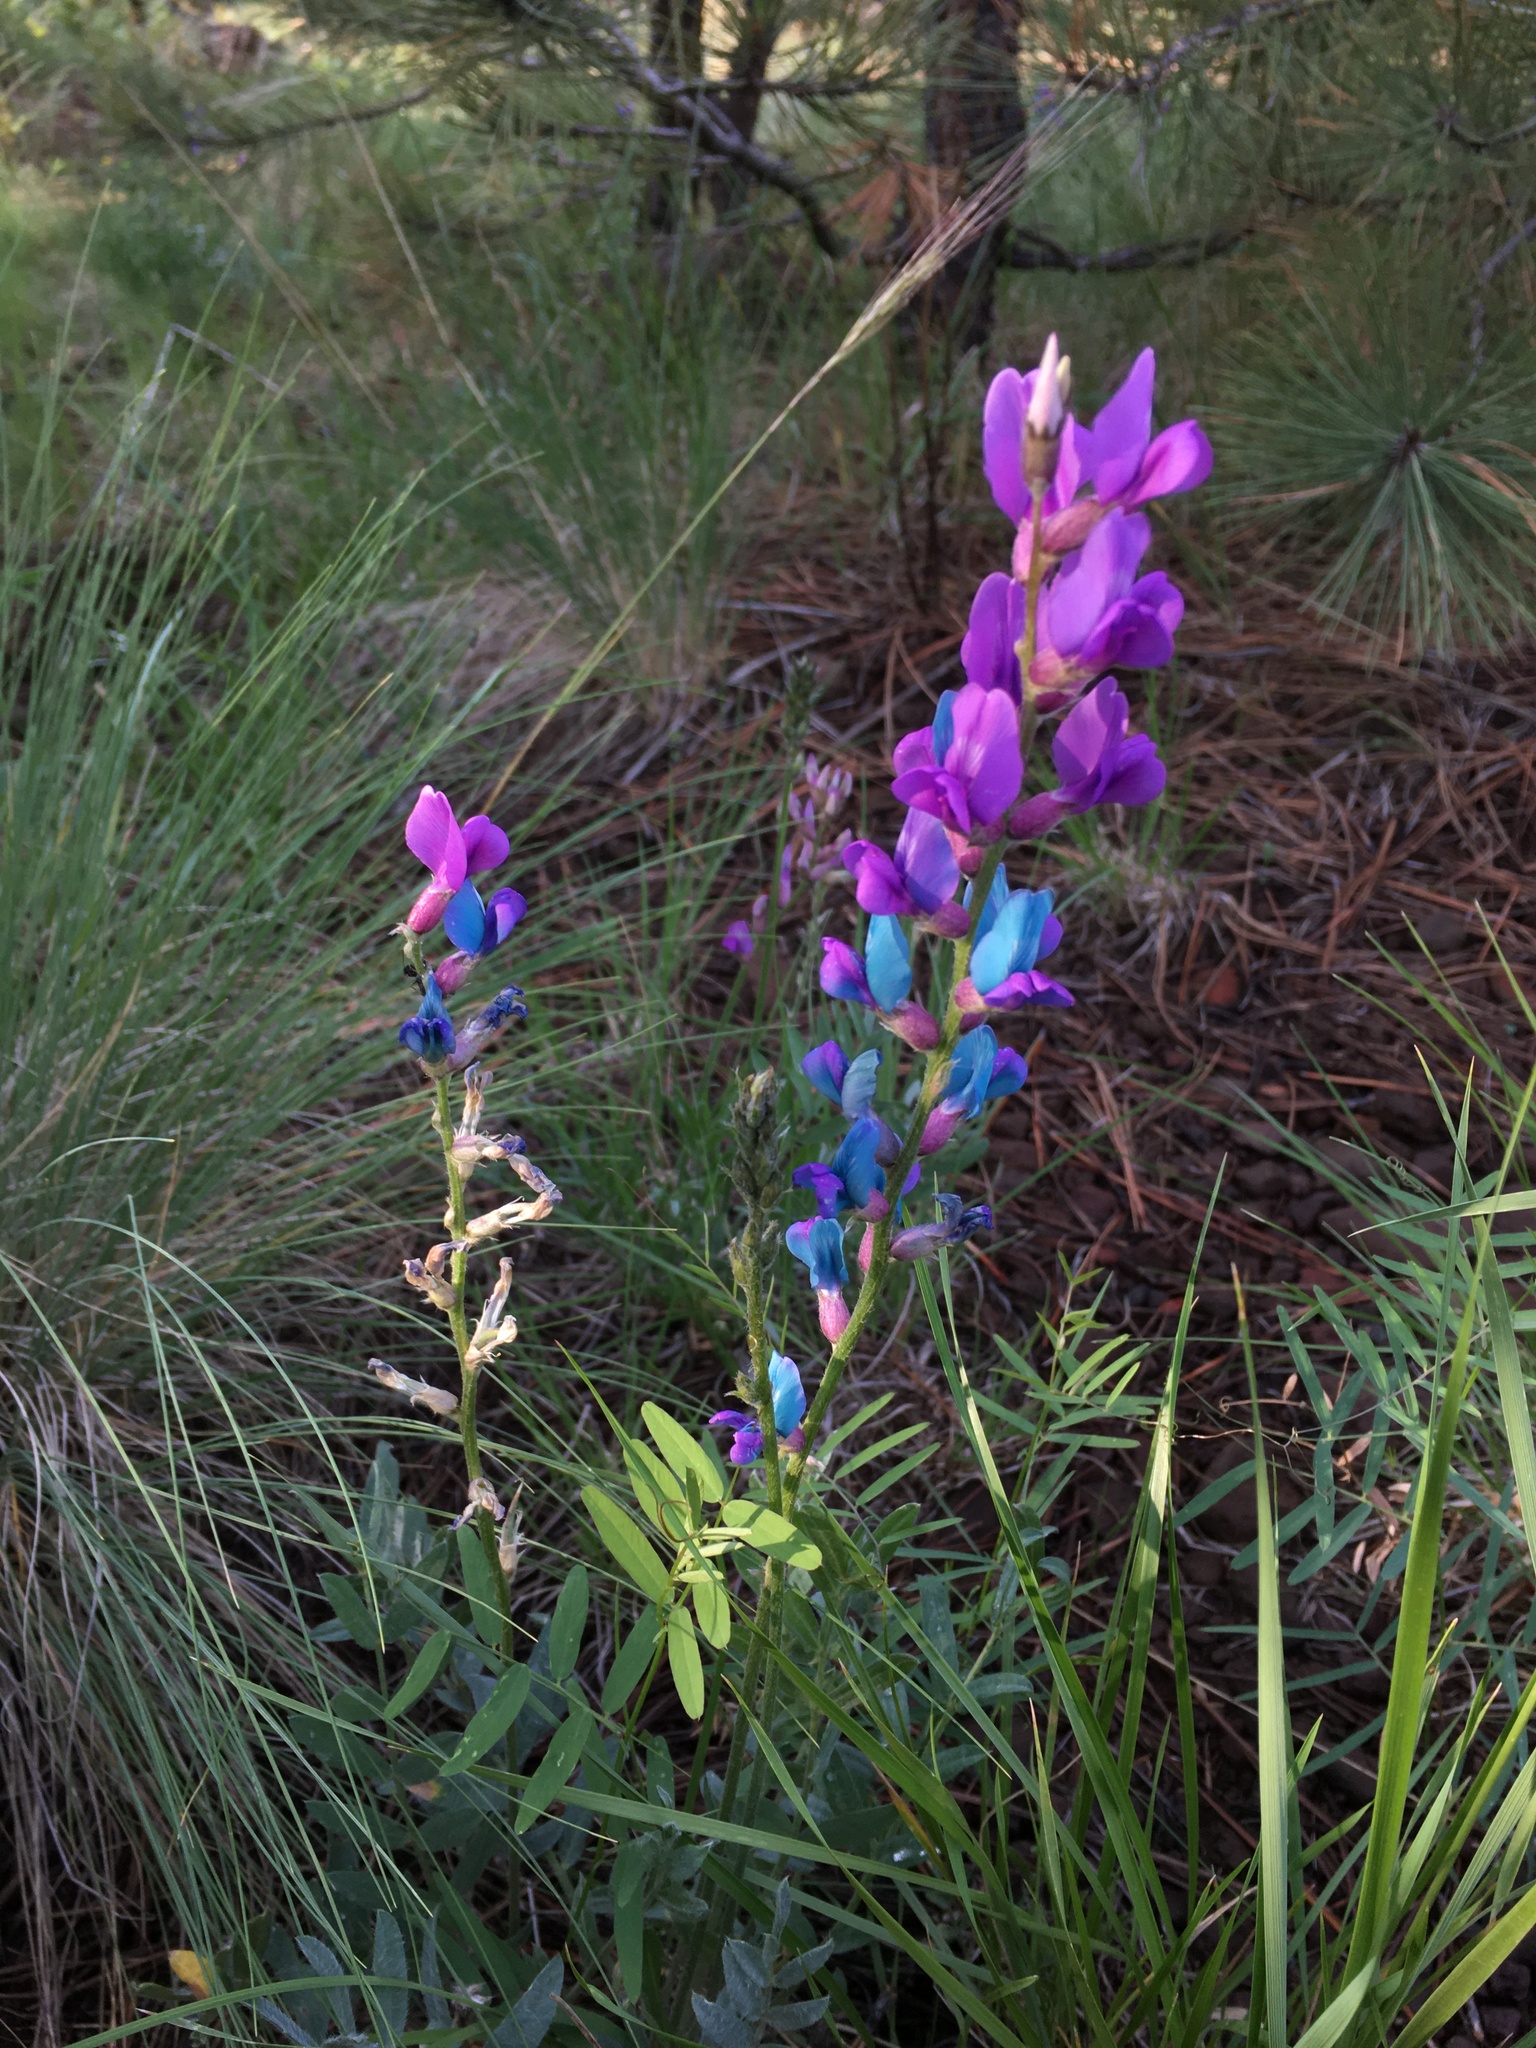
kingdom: Plantae
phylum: Tracheophyta
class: Magnoliopsida
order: Fabales
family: Fabaceae
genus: Oxytropis
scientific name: Oxytropis lambertii
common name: Purple locoweed
